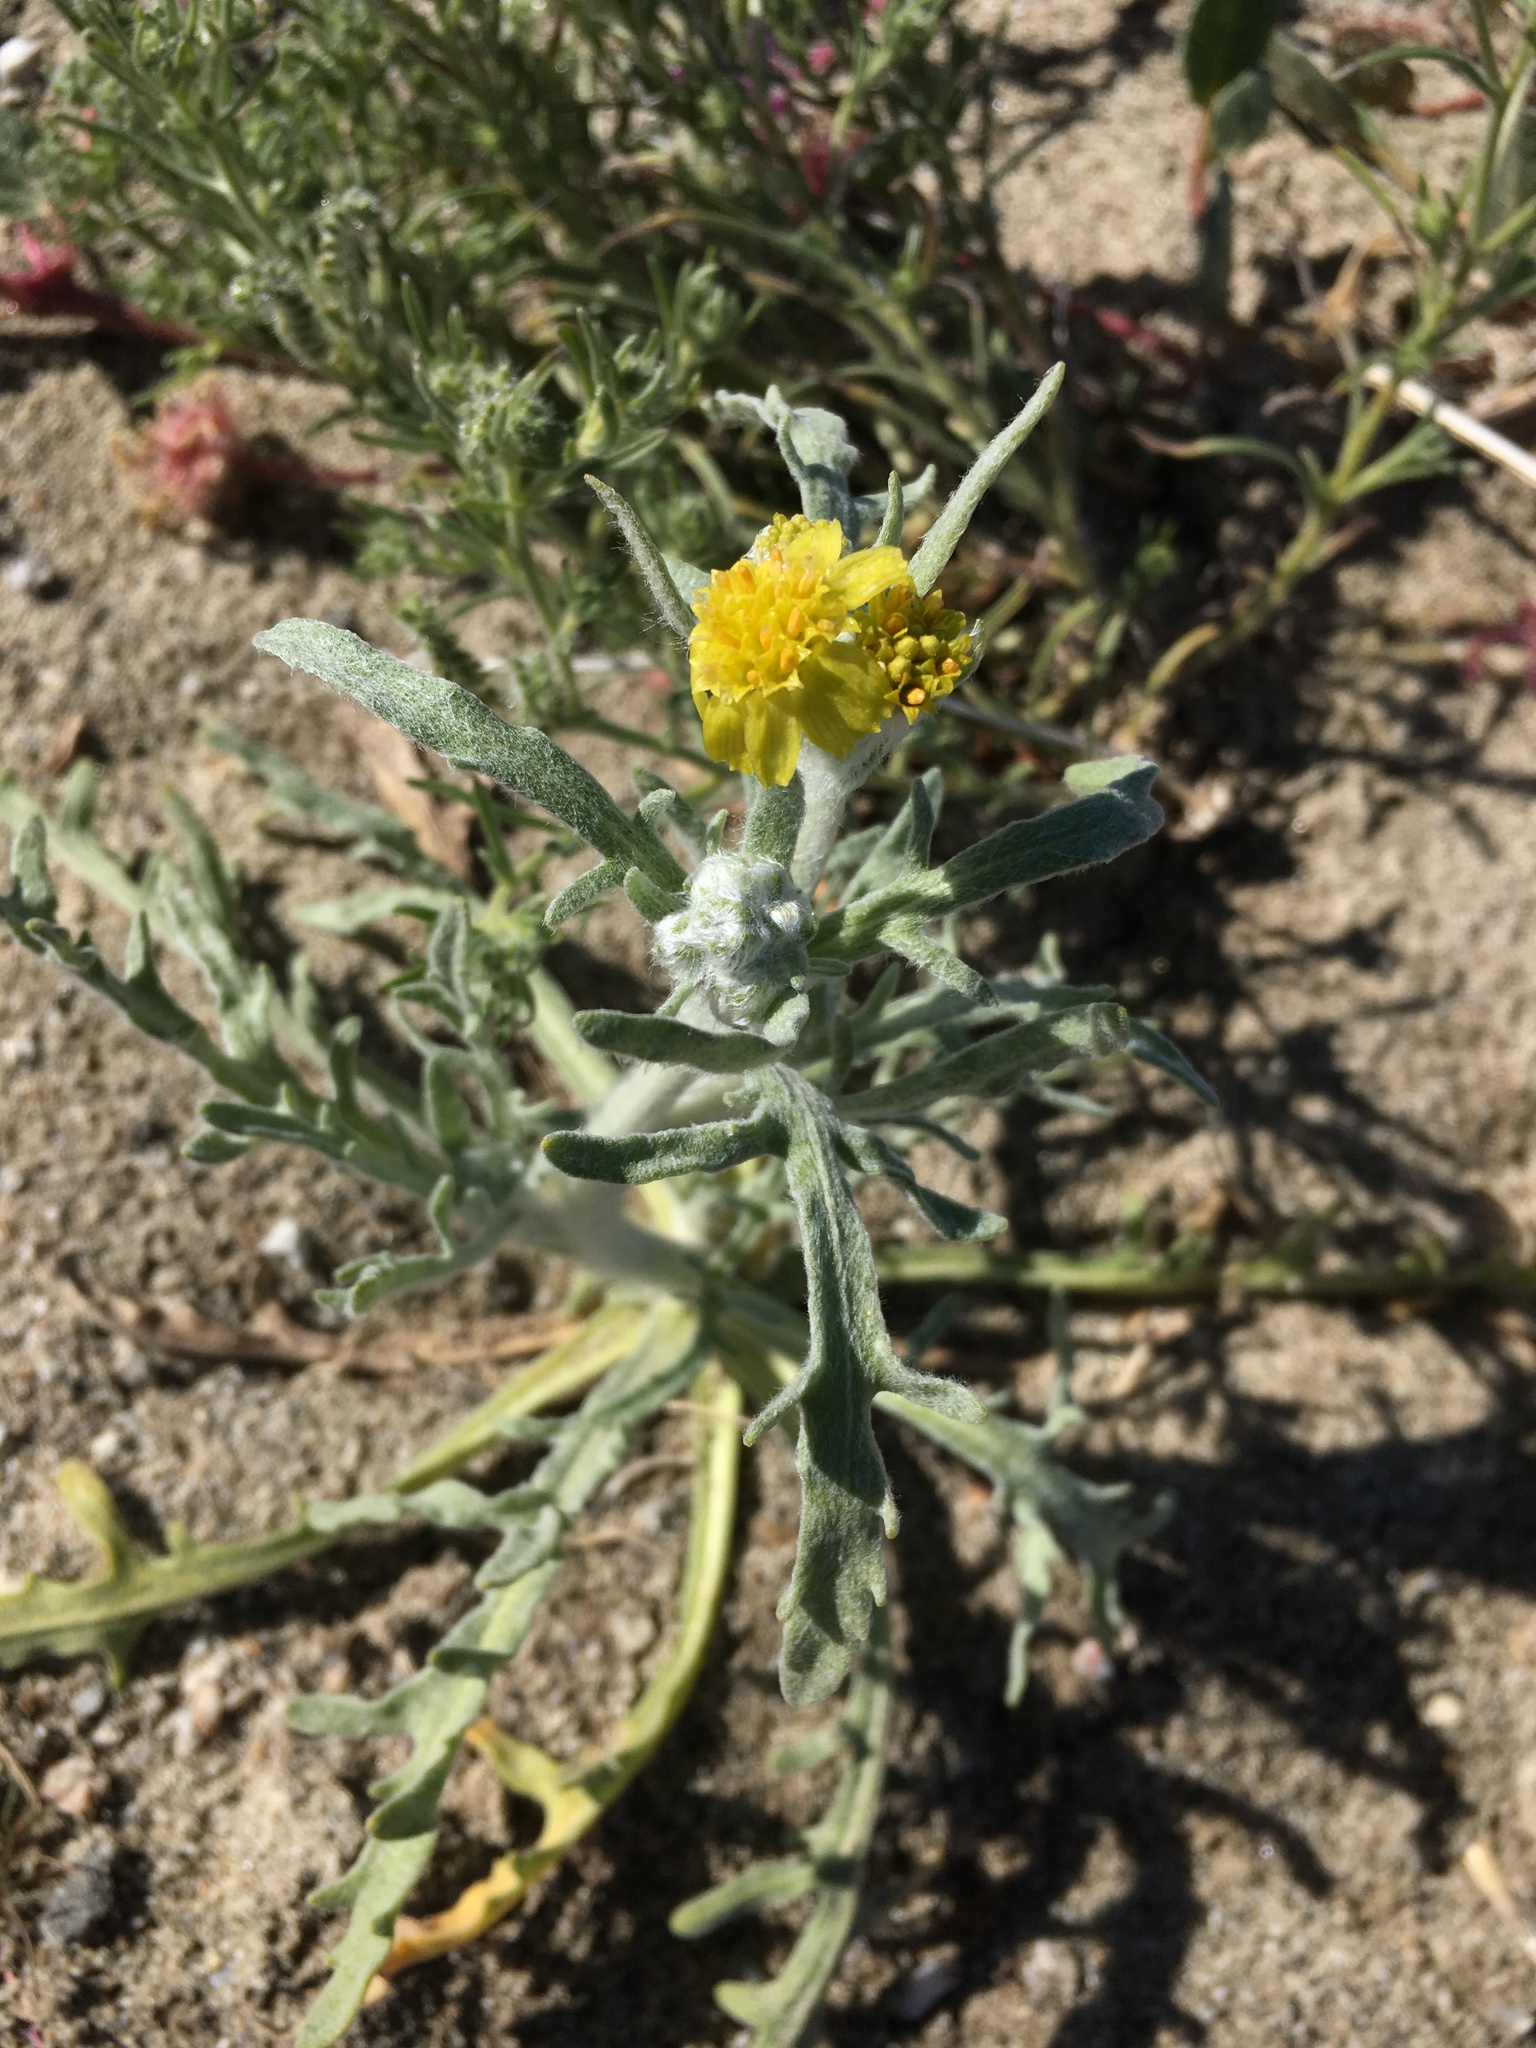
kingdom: Plantae
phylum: Tracheophyta
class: Magnoliopsida
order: Asterales
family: Asteraceae
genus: Baileya
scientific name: Baileya pauciradiata
